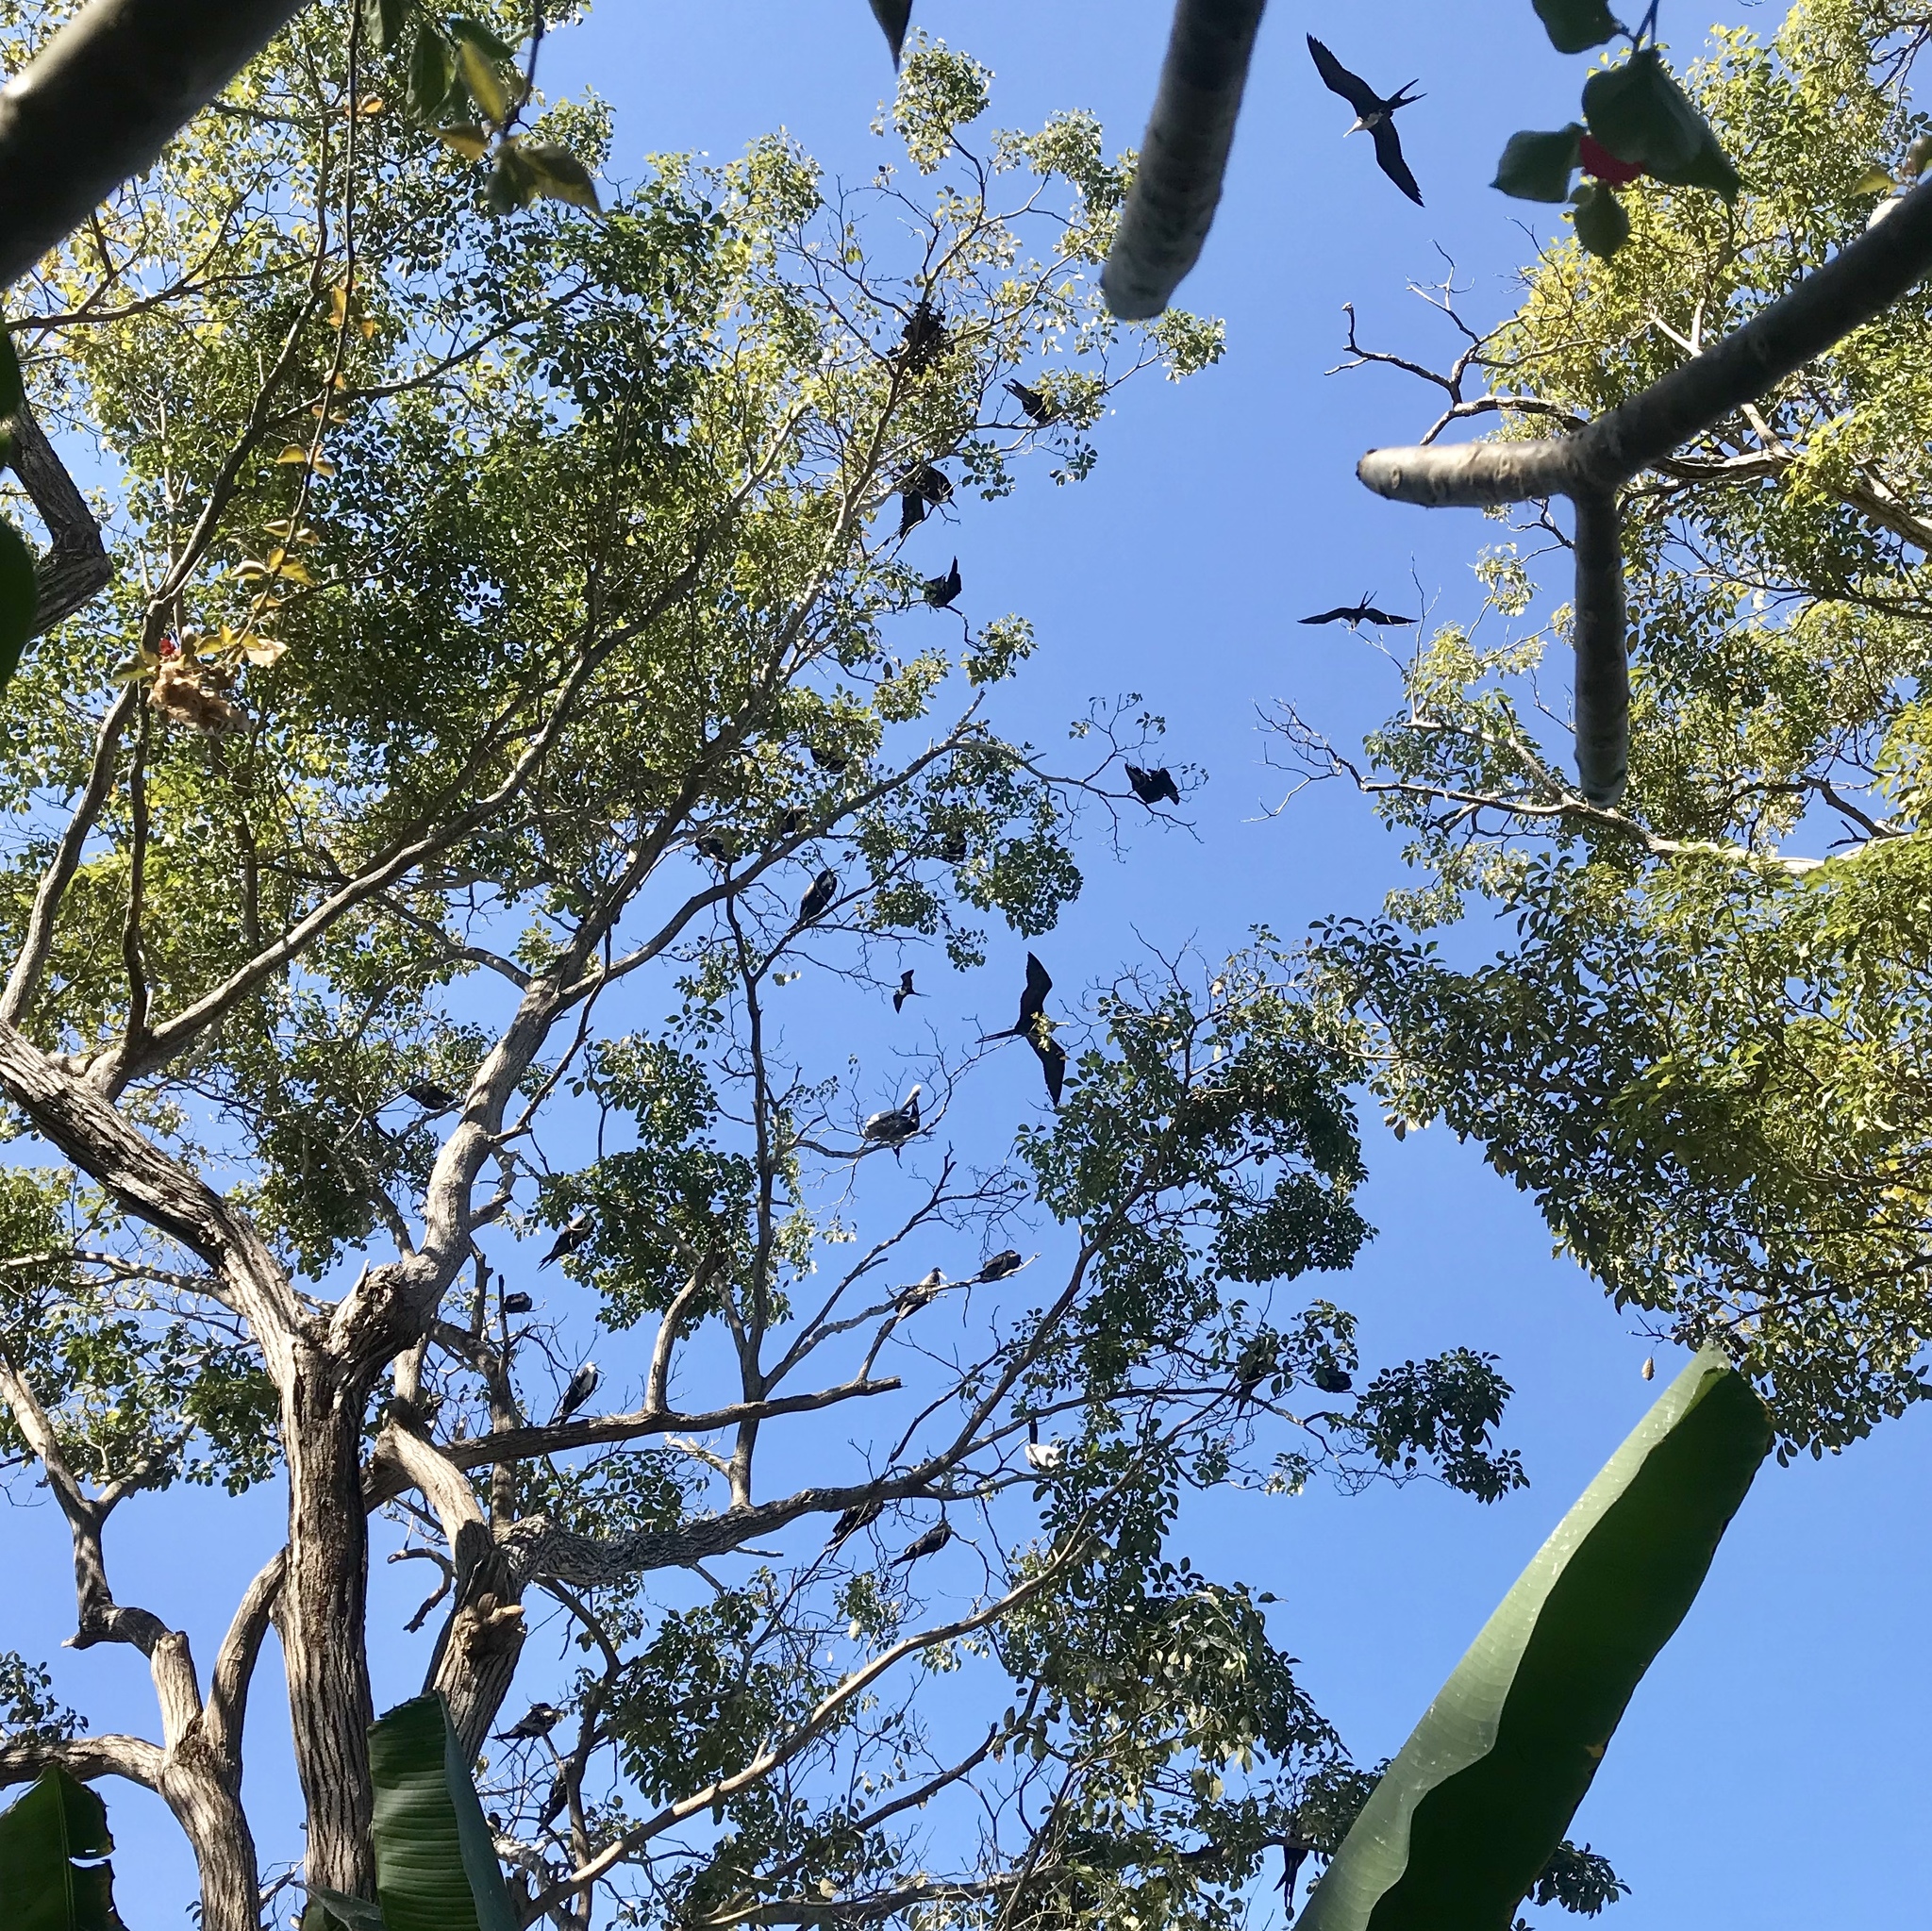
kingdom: Animalia
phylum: Chordata
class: Aves
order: Suliformes
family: Fregatidae
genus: Fregata
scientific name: Fregata magnificens
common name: Magnificent frigatebird
